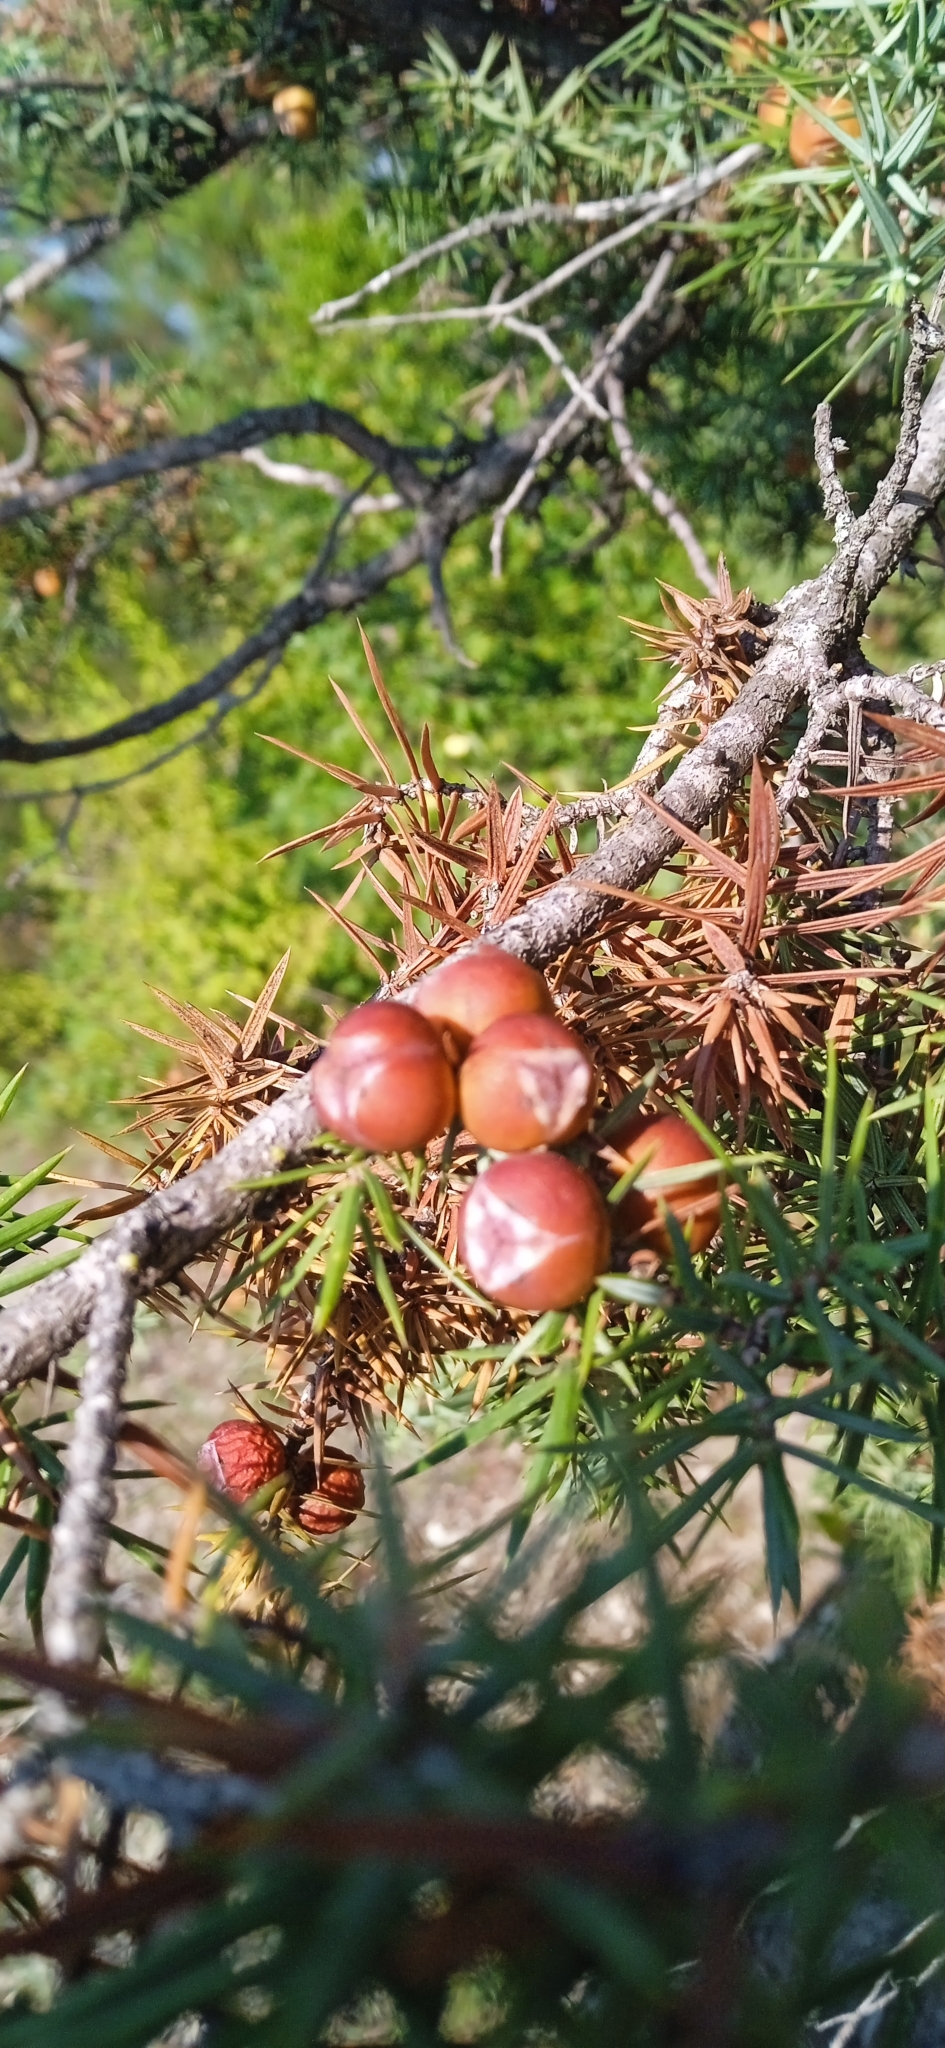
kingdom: Plantae
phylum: Tracheophyta
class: Pinopsida
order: Pinales
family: Cupressaceae
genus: Juniperus
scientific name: Juniperus oxycedrus
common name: Prickly juniper
